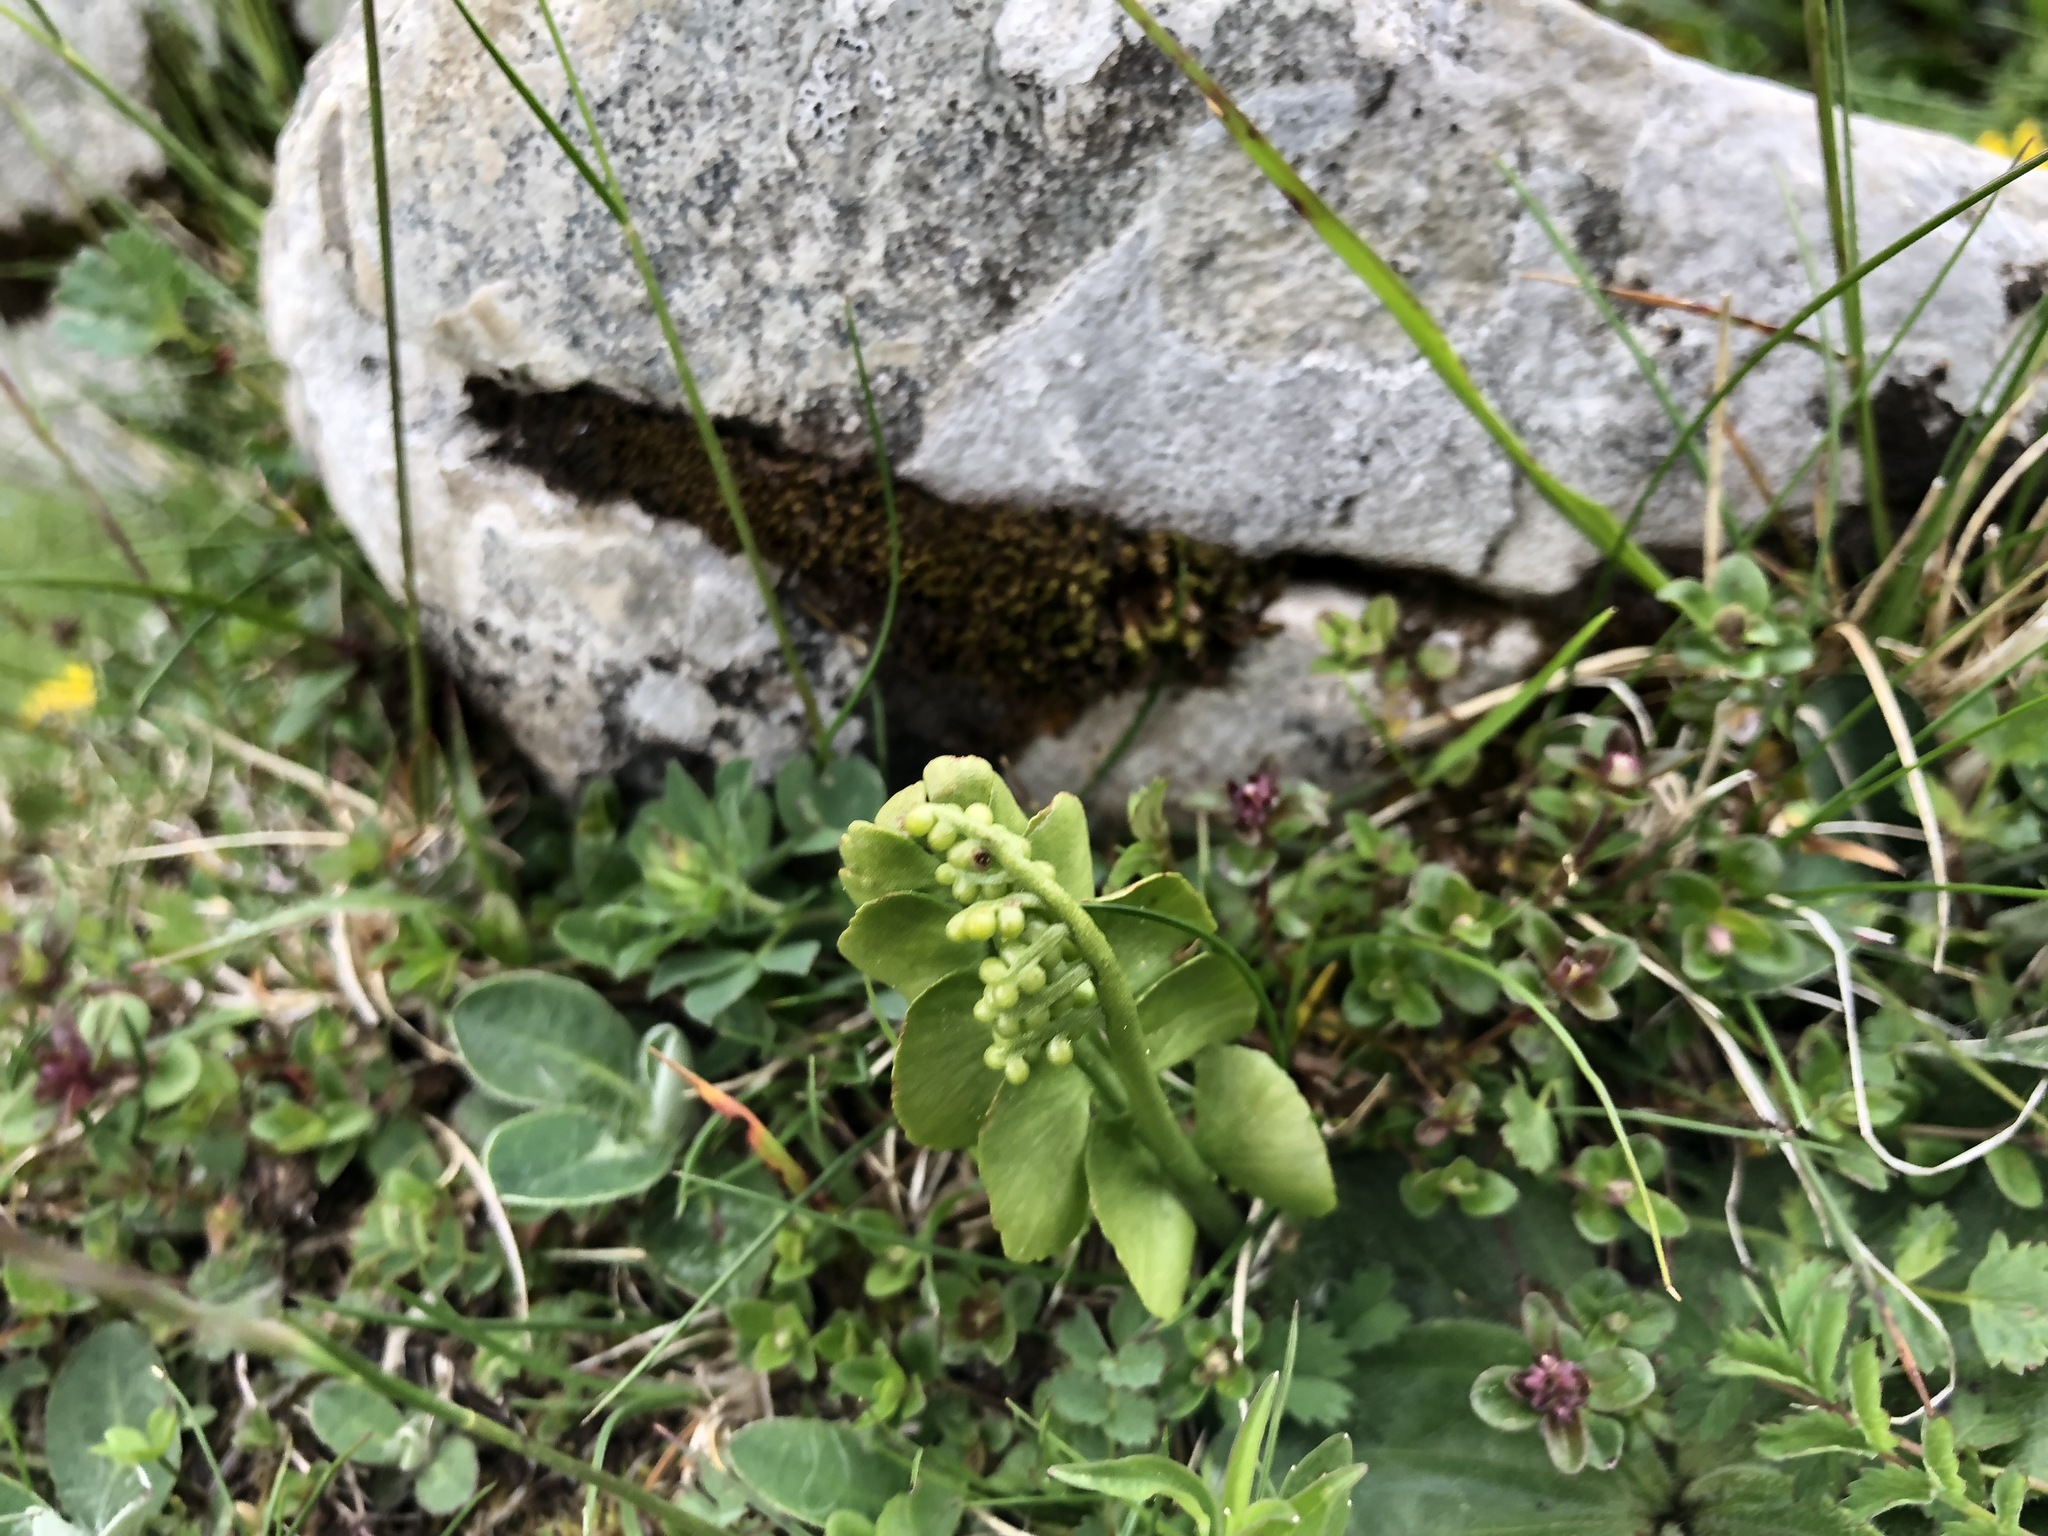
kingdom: Plantae
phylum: Tracheophyta
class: Polypodiopsida
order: Ophioglossales
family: Ophioglossaceae
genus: Botrychium
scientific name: Botrychium lunaria
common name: Moonwort
